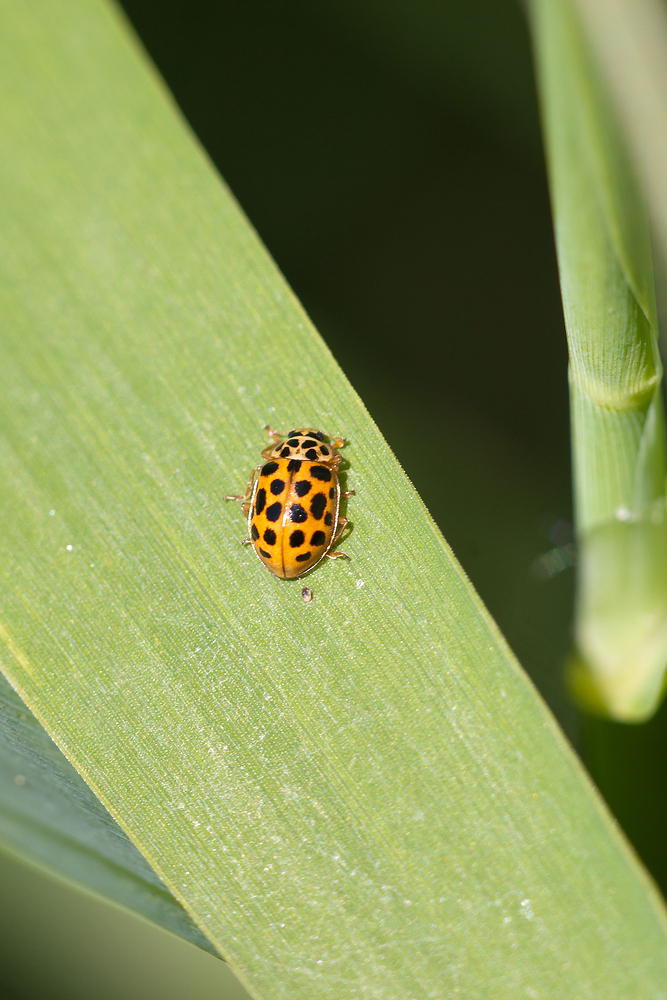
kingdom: Animalia
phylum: Arthropoda
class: Insecta
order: Coleoptera
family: Coccinellidae
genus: Anisosticta
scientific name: Anisosticta novemdecimpunctata
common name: Water ladybird
